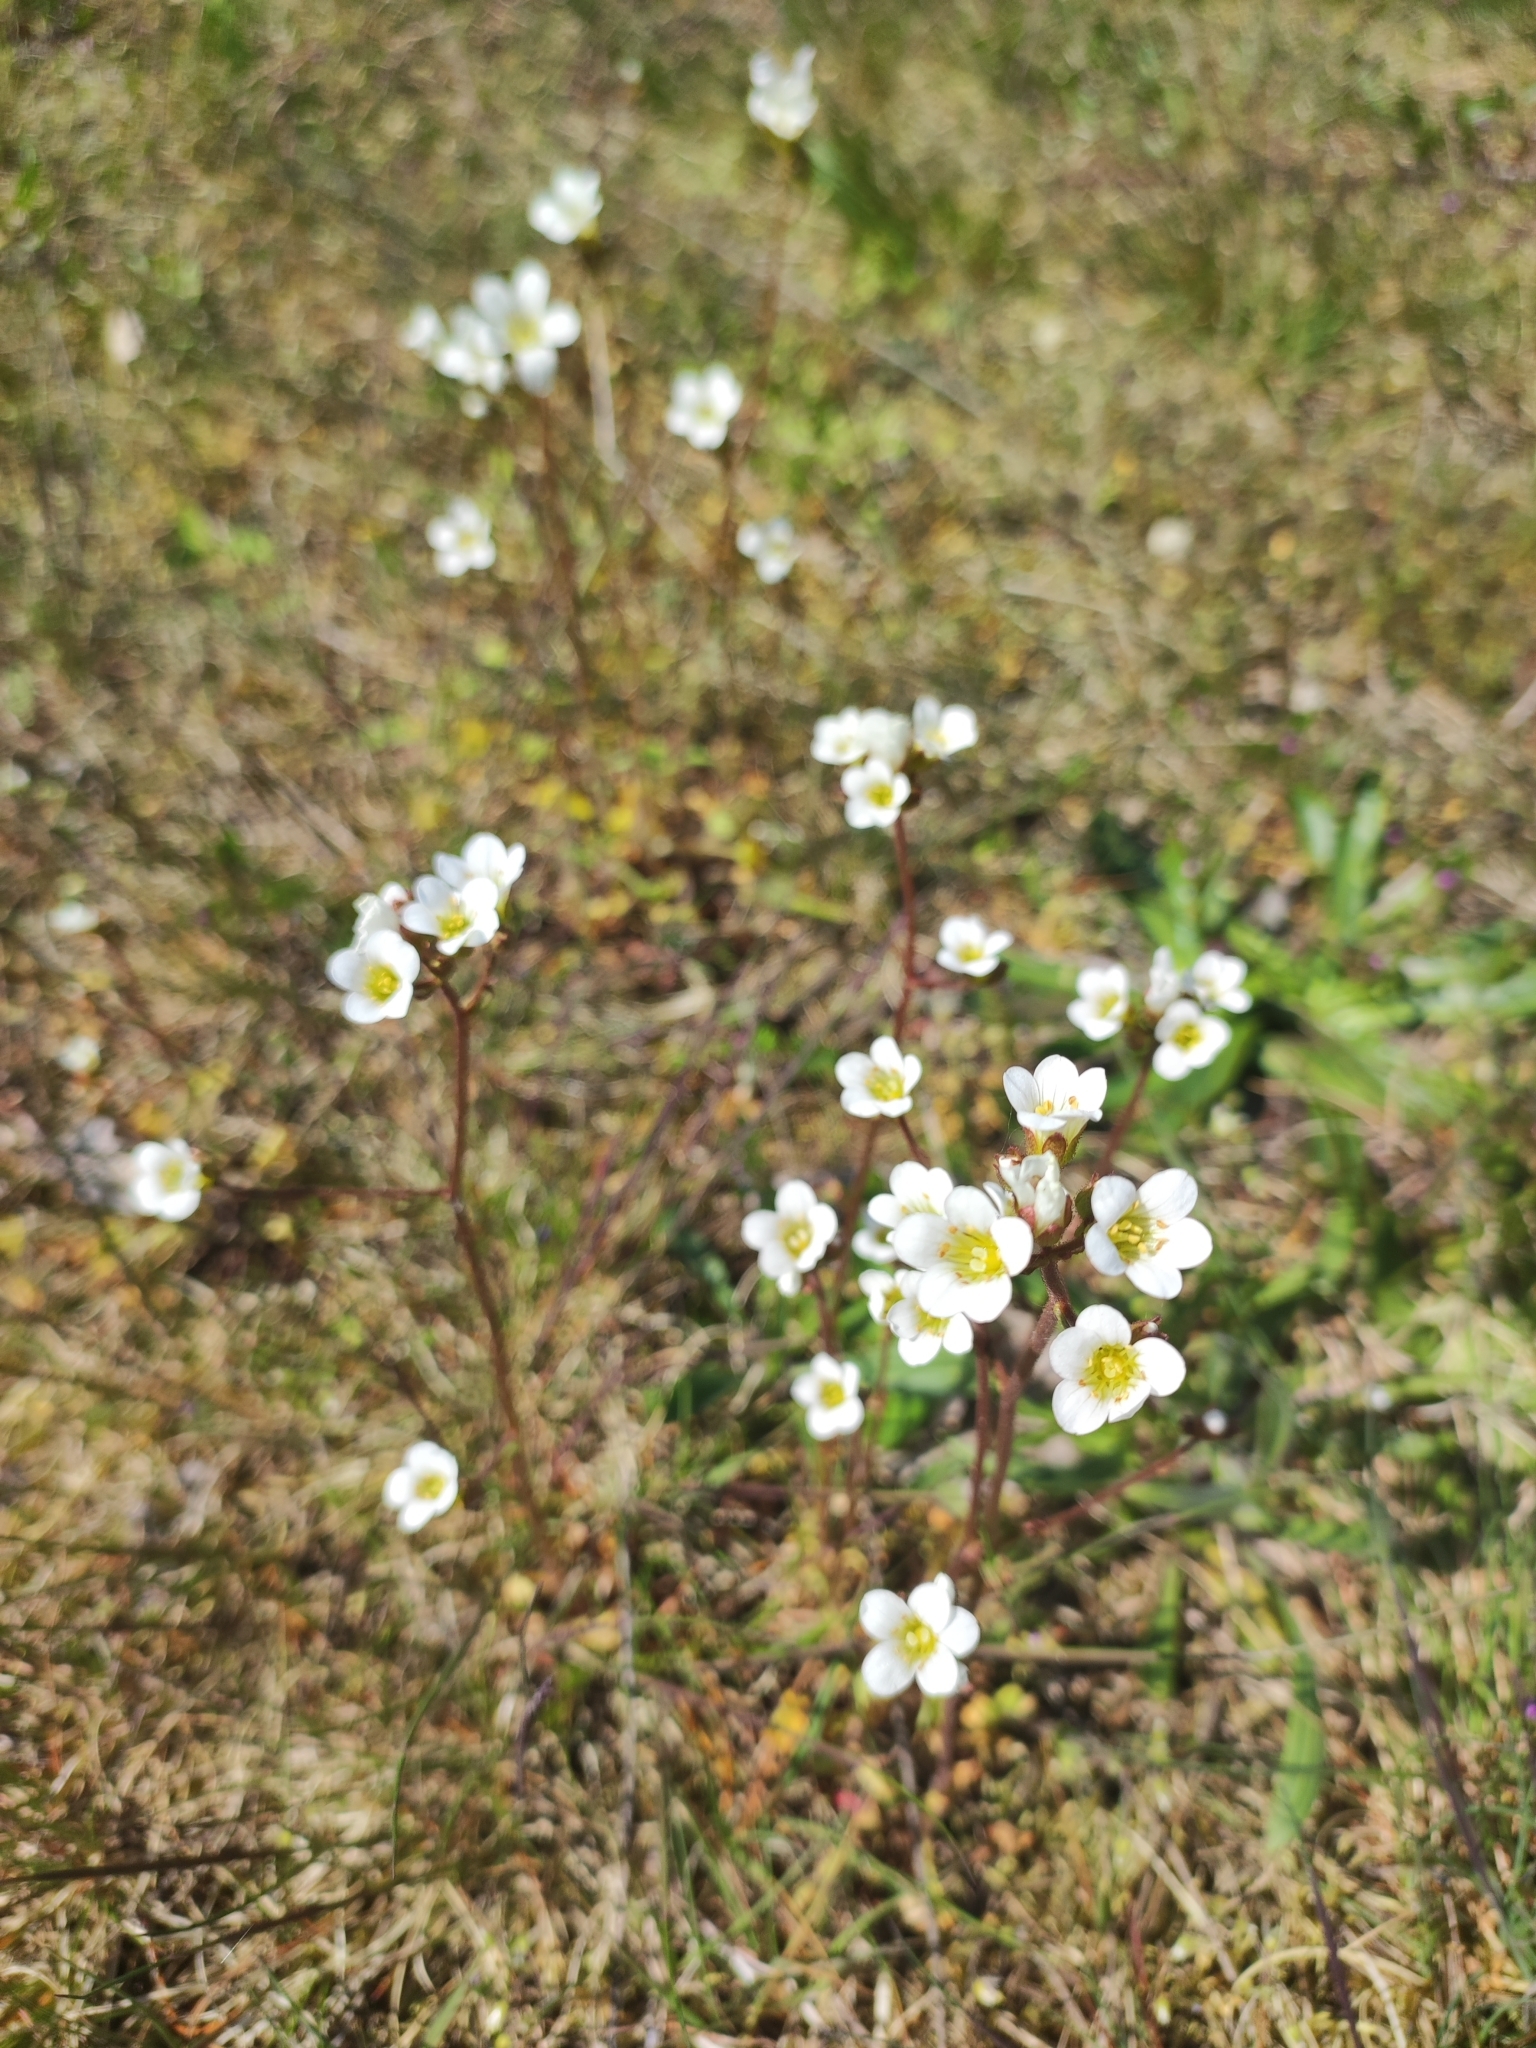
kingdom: Plantae
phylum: Tracheophyta
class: Magnoliopsida
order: Saxifragales
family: Saxifragaceae
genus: Saxifraga
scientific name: Saxifraga granulata
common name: Meadow saxifrage
